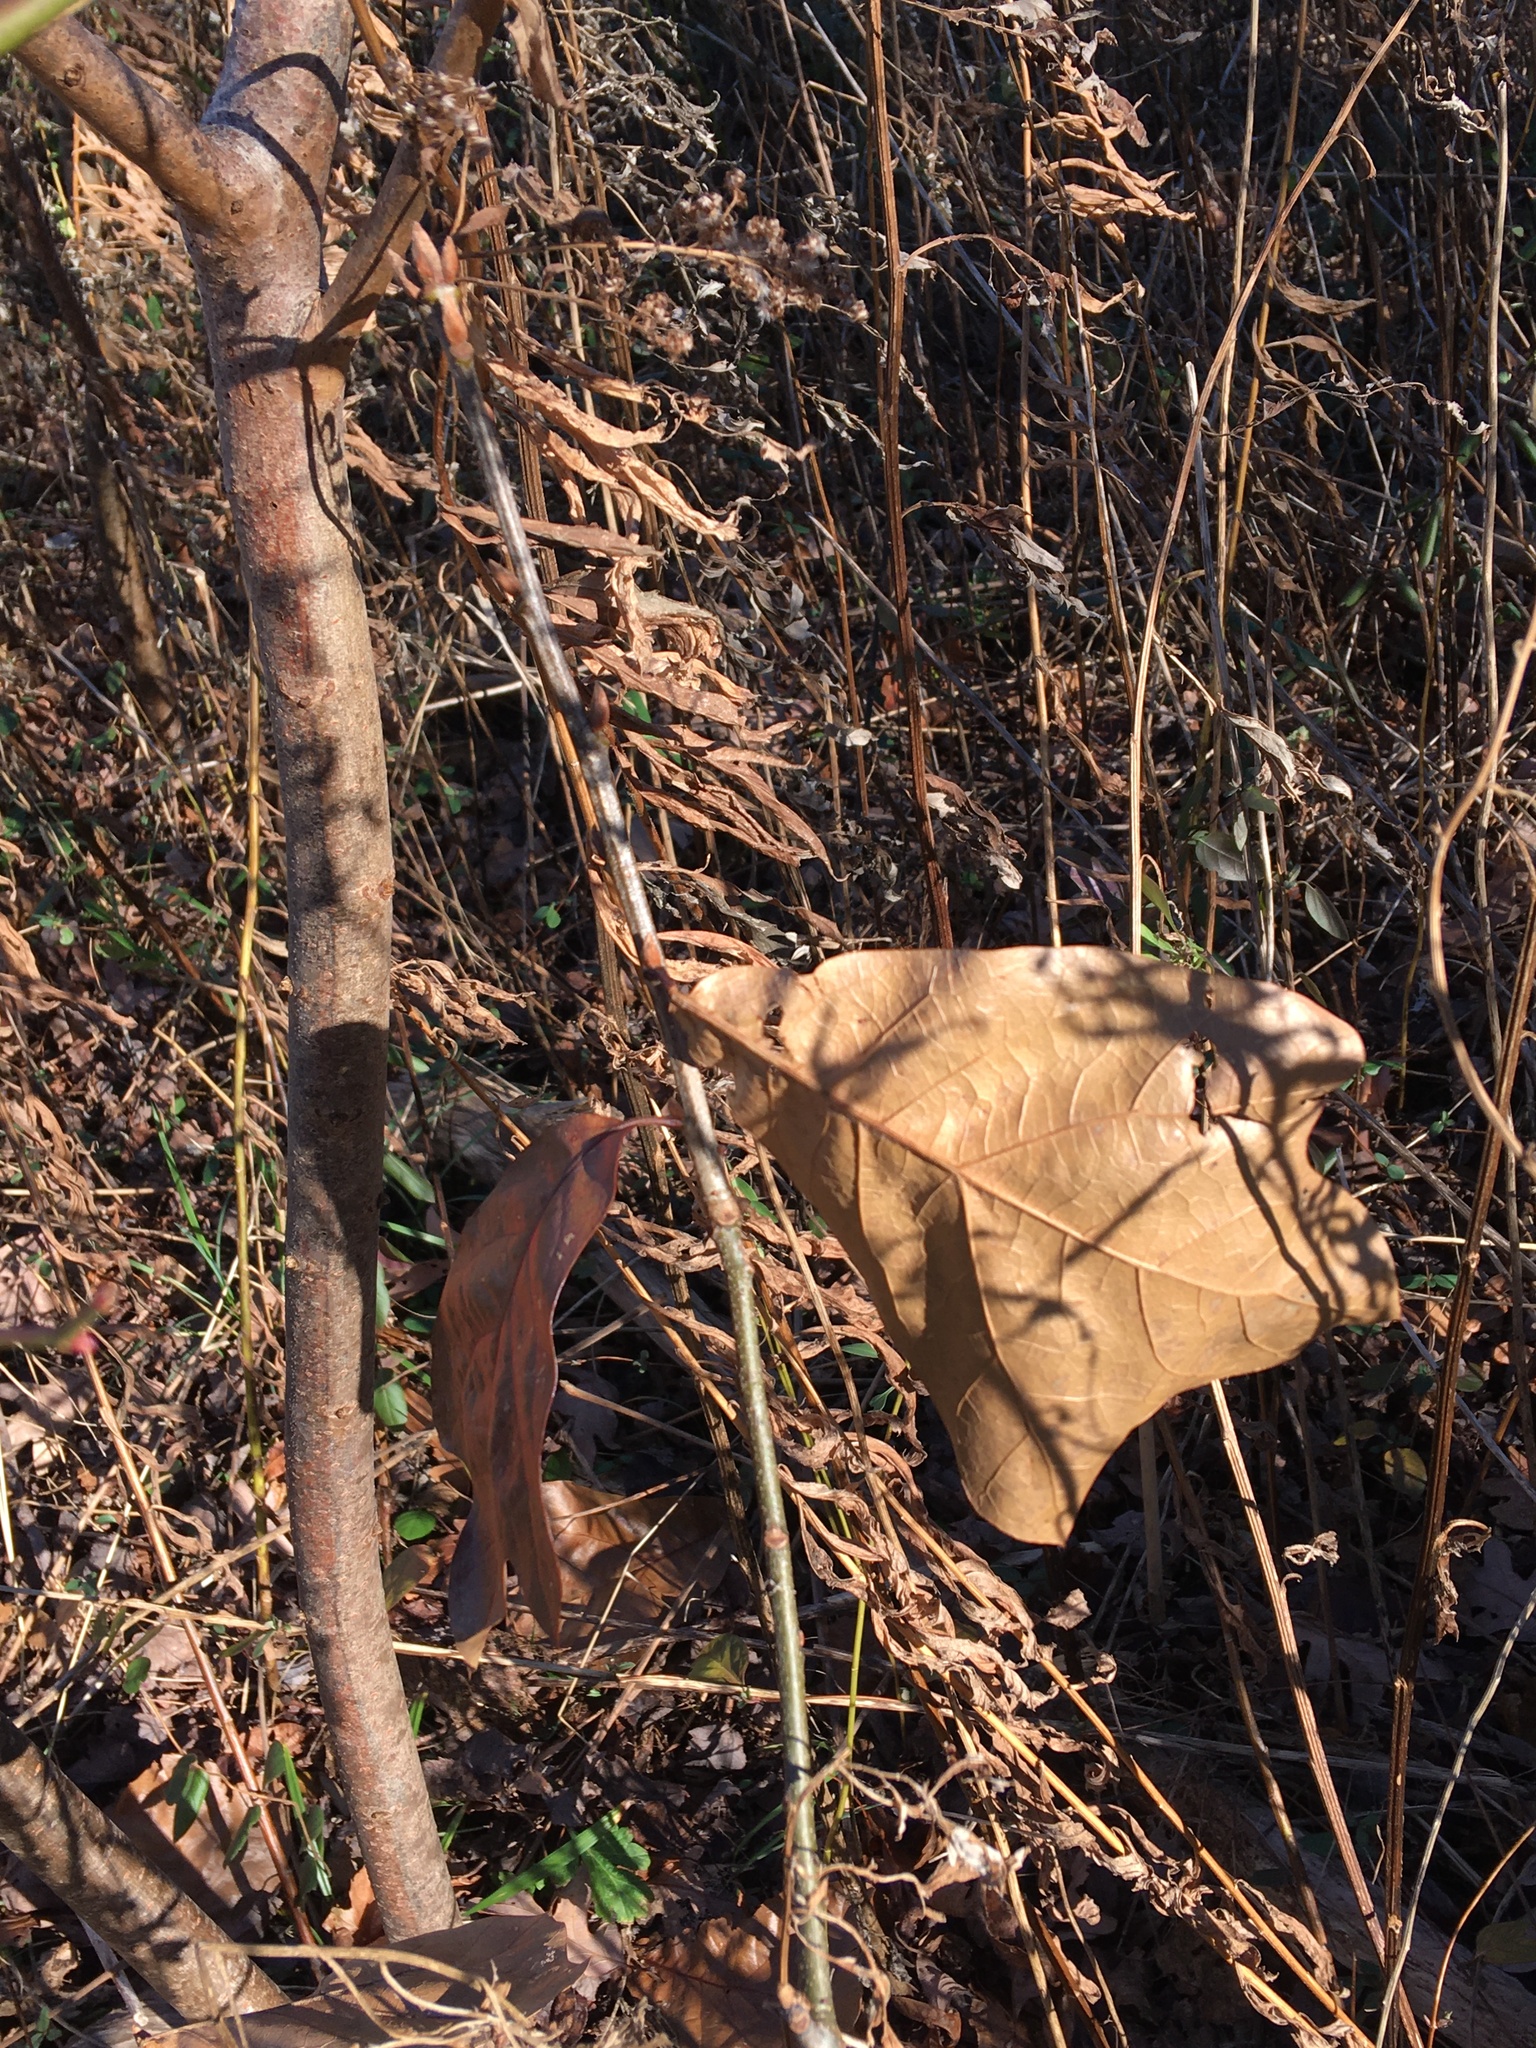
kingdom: Plantae
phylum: Tracheophyta
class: Magnoliopsida
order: Fagales
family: Fagaceae
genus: Quercus
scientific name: Quercus marilandica
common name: Blackjack oak
